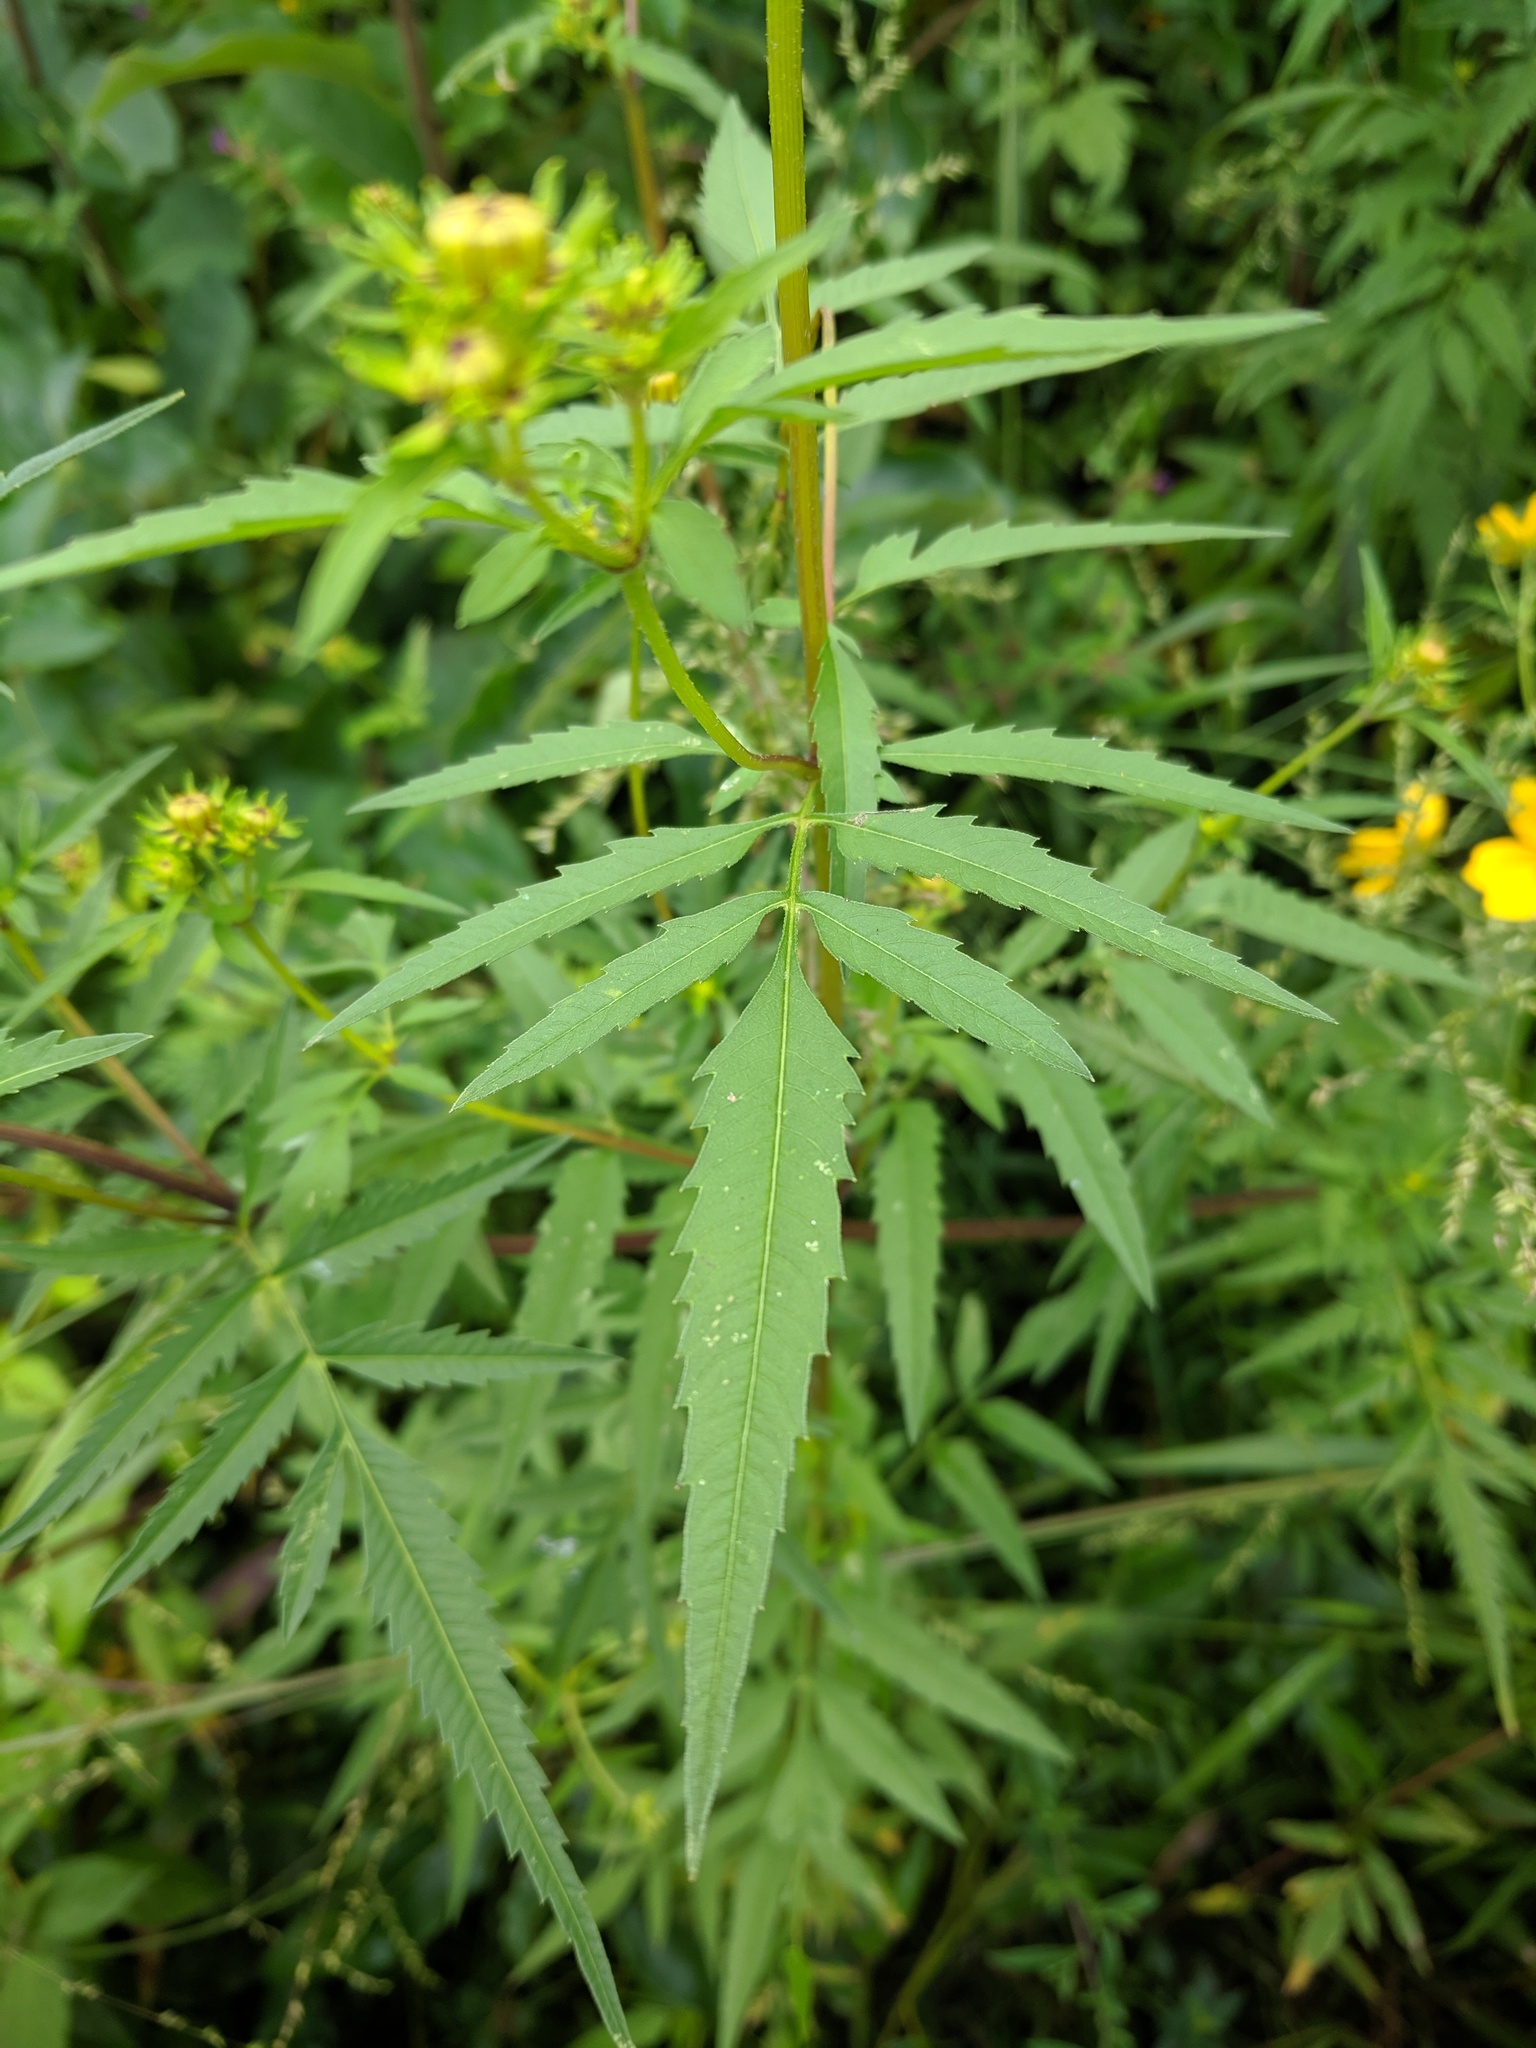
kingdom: Plantae
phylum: Tracheophyta
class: Magnoliopsida
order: Asterales
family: Asteraceae
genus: Bidens
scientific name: Bidens aristosa
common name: Western tickseed
